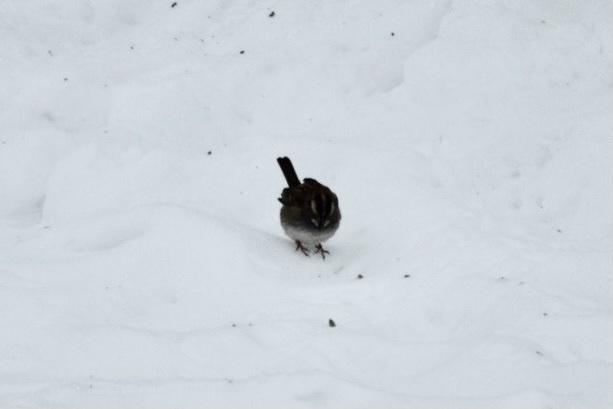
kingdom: Animalia
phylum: Chordata
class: Aves
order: Passeriformes
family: Passerellidae
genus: Zonotrichia
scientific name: Zonotrichia albicollis
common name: White-throated sparrow
